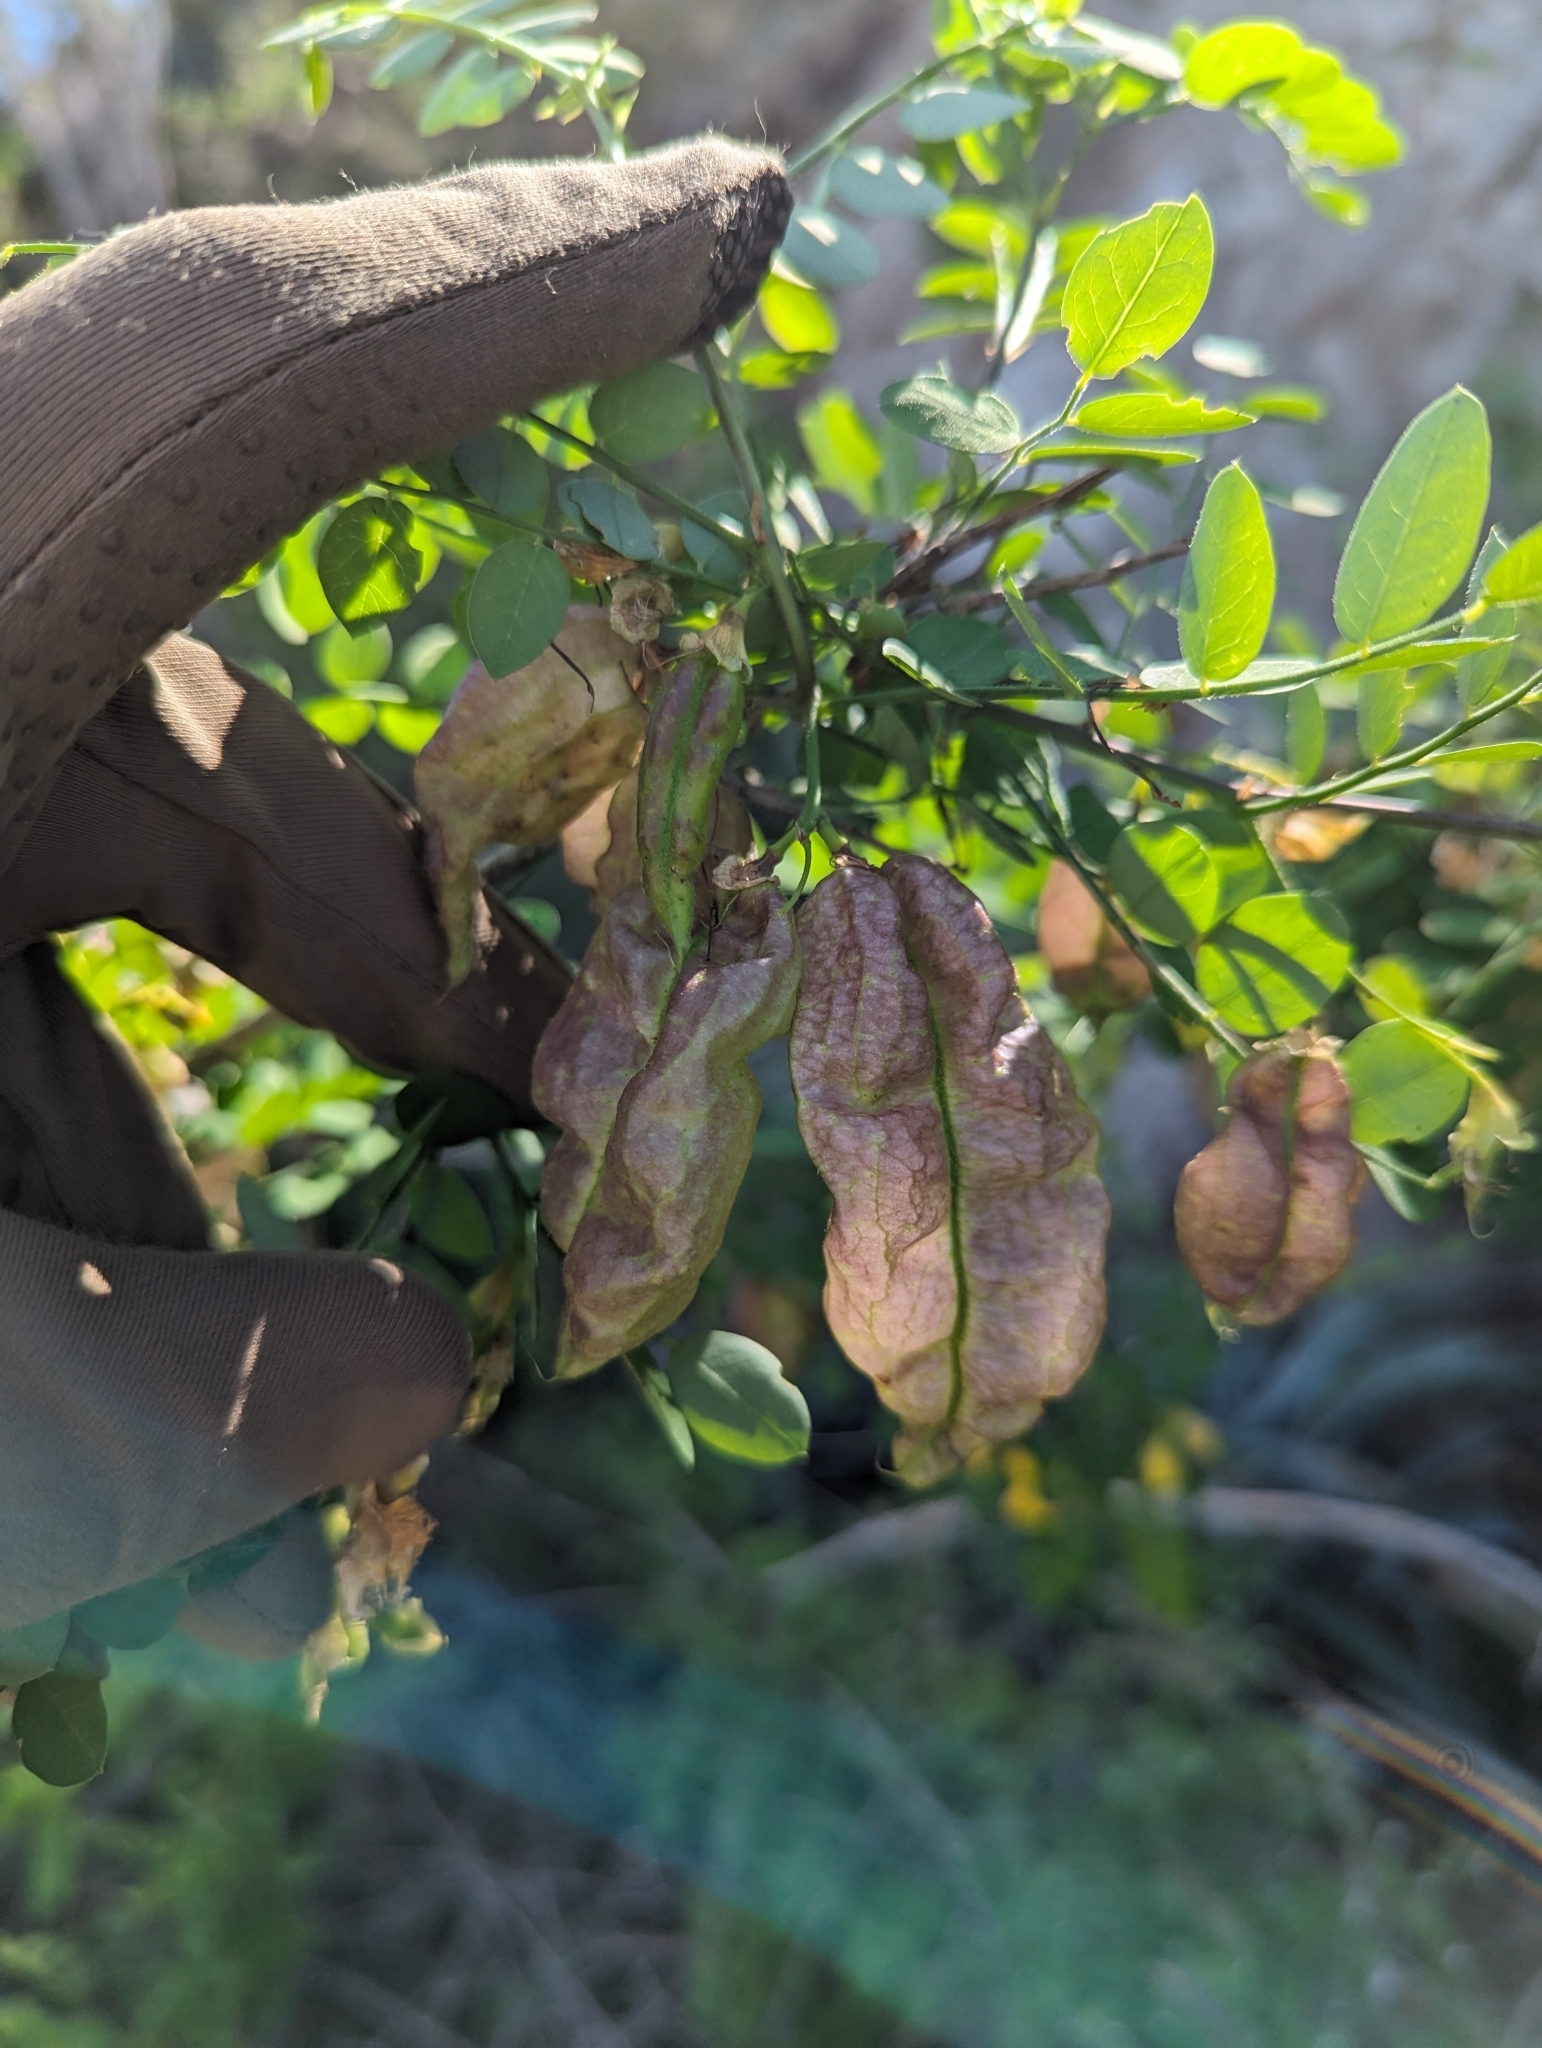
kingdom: Plantae
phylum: Tracheophyta
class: Magnoliopsida
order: Fabales
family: Fabaceae
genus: Diphysa
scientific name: Diphysa occidentalis
